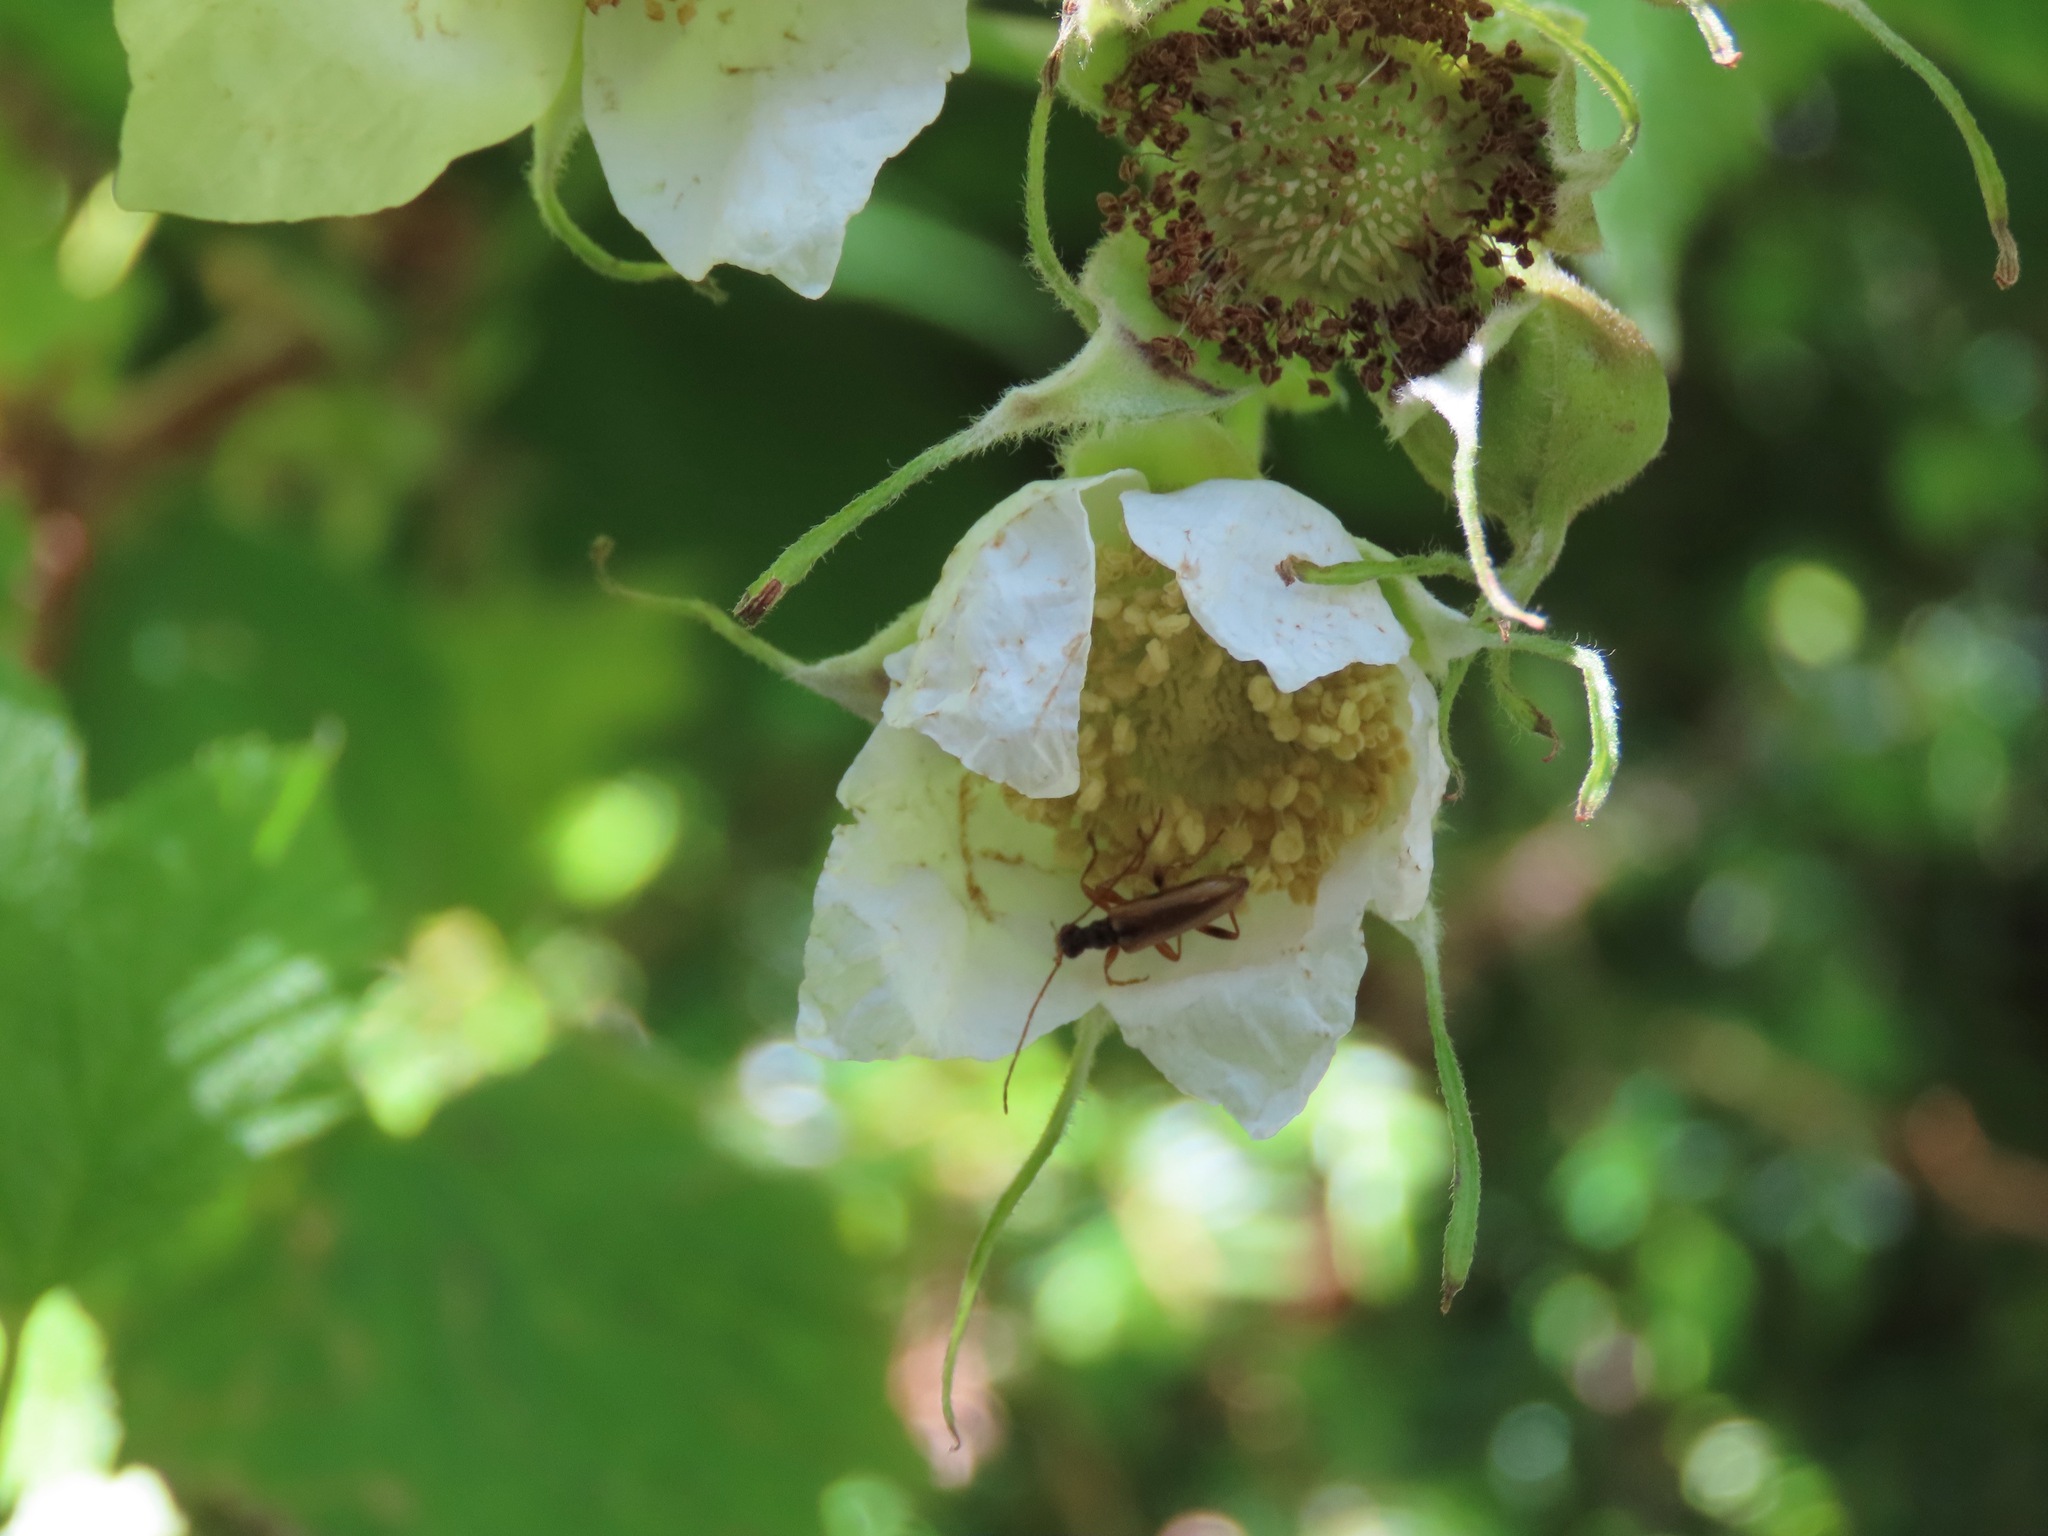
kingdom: Animalia
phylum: Arthropoda
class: Insecta
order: Coleoptera
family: Cerambycidae
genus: Pidonia
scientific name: Pidonia scripta
